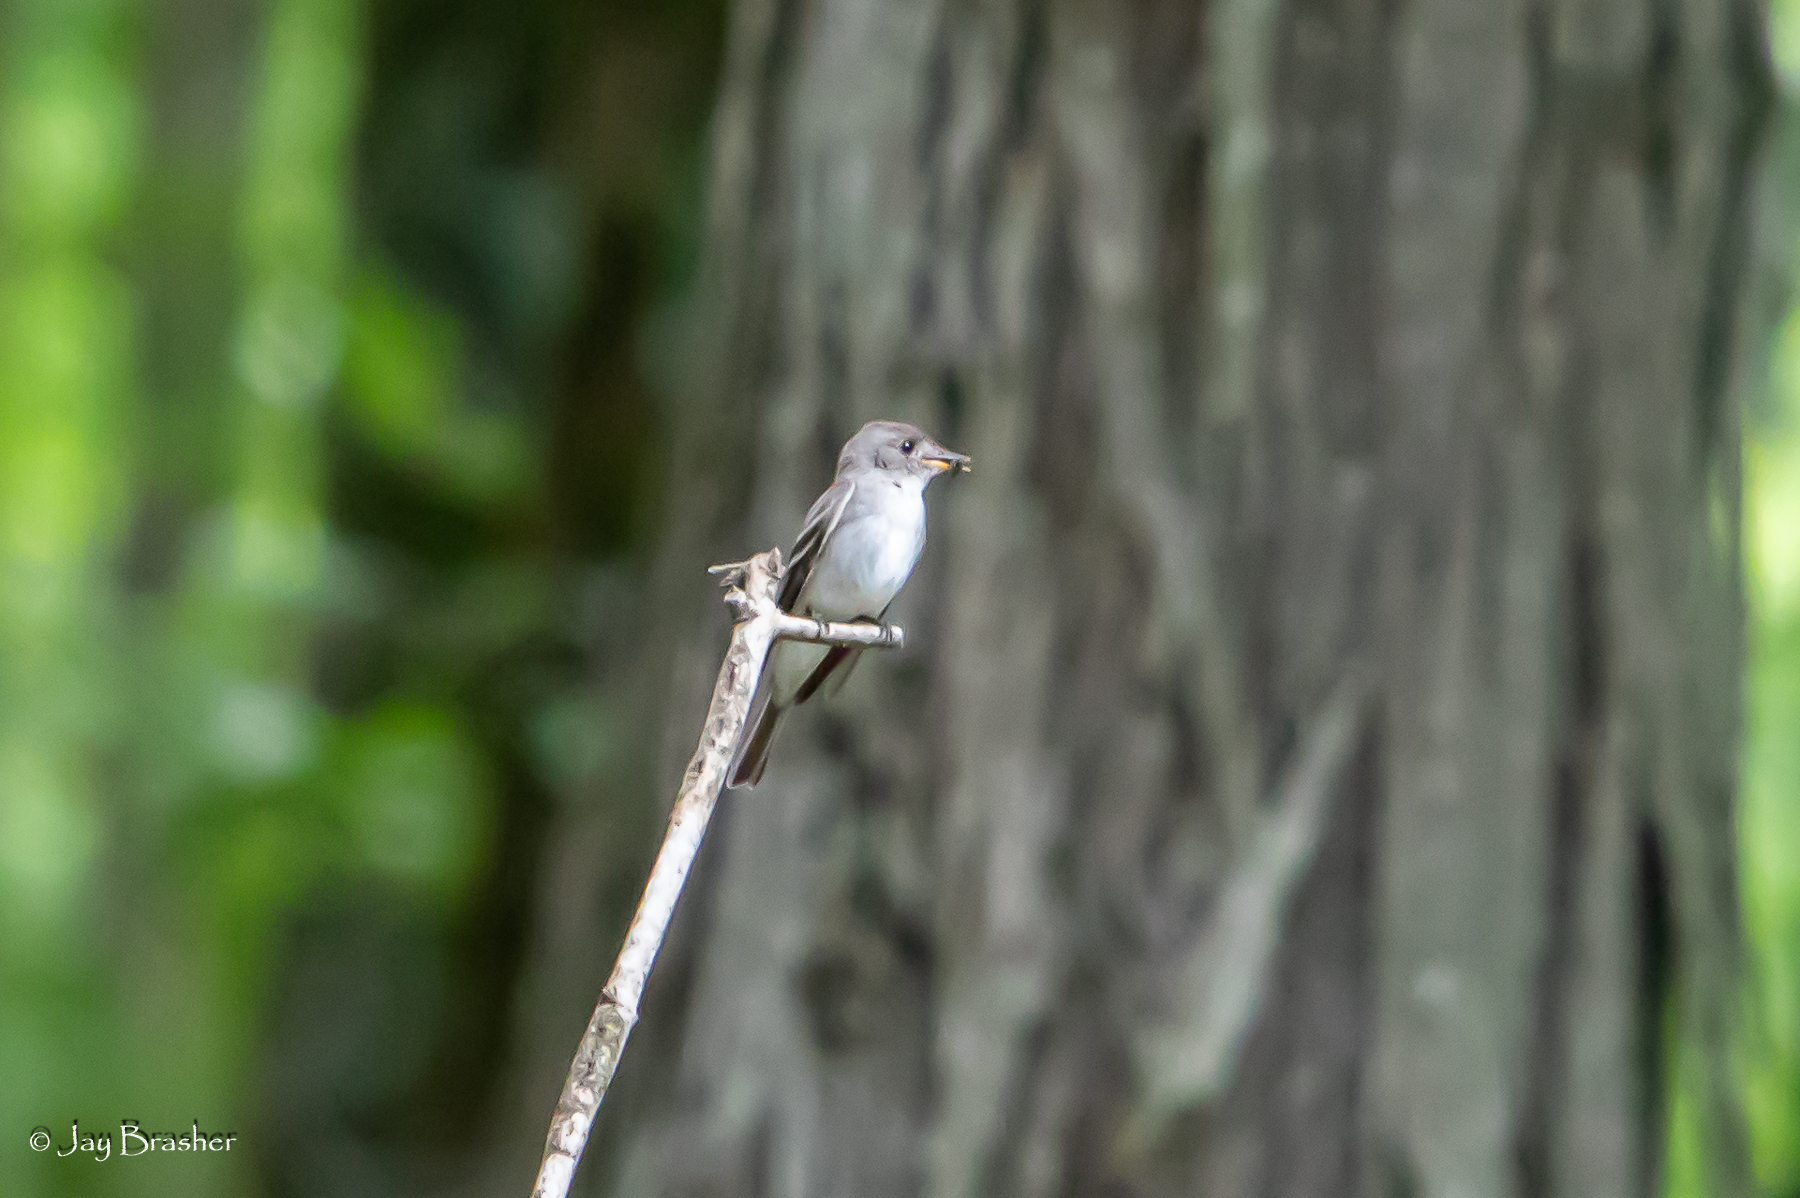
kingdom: Animalia
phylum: Chordata
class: Aves
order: Passeriformes
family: Tyrannidae
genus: Contopus
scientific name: Contopus virens
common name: Eastern wood-pewee
